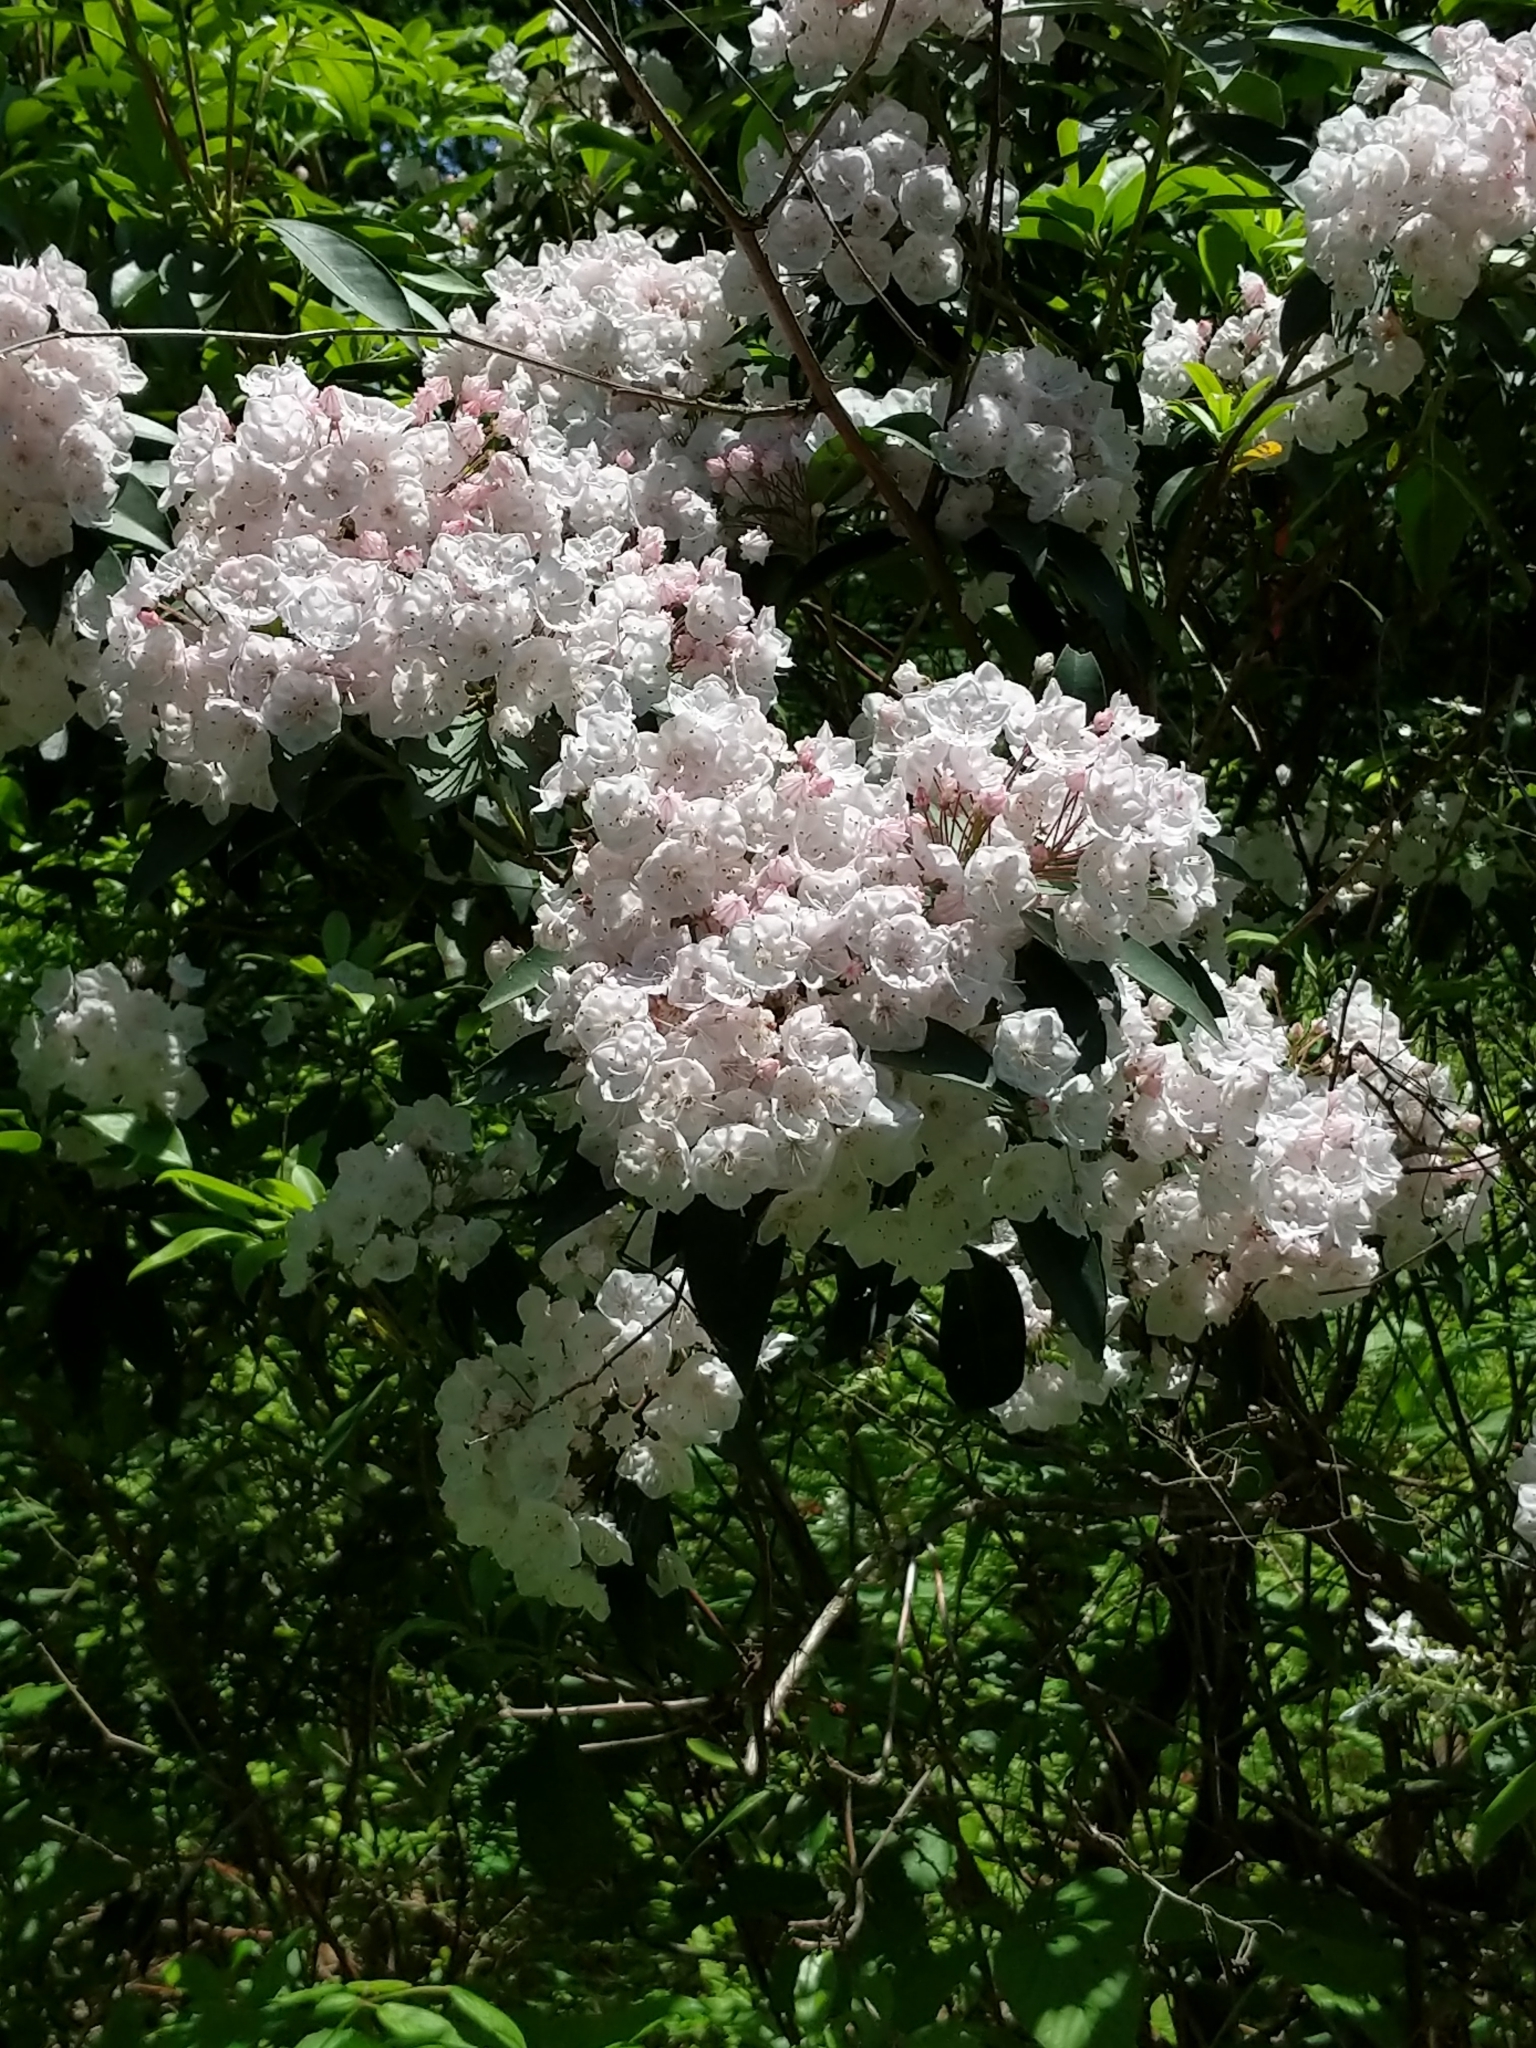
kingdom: Plantae
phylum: Tracheophyta
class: Magnoliopsida
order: Ericales
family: Ericaceae
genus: Kalmia
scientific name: Kalmia latifolia
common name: Mountain-laurel
